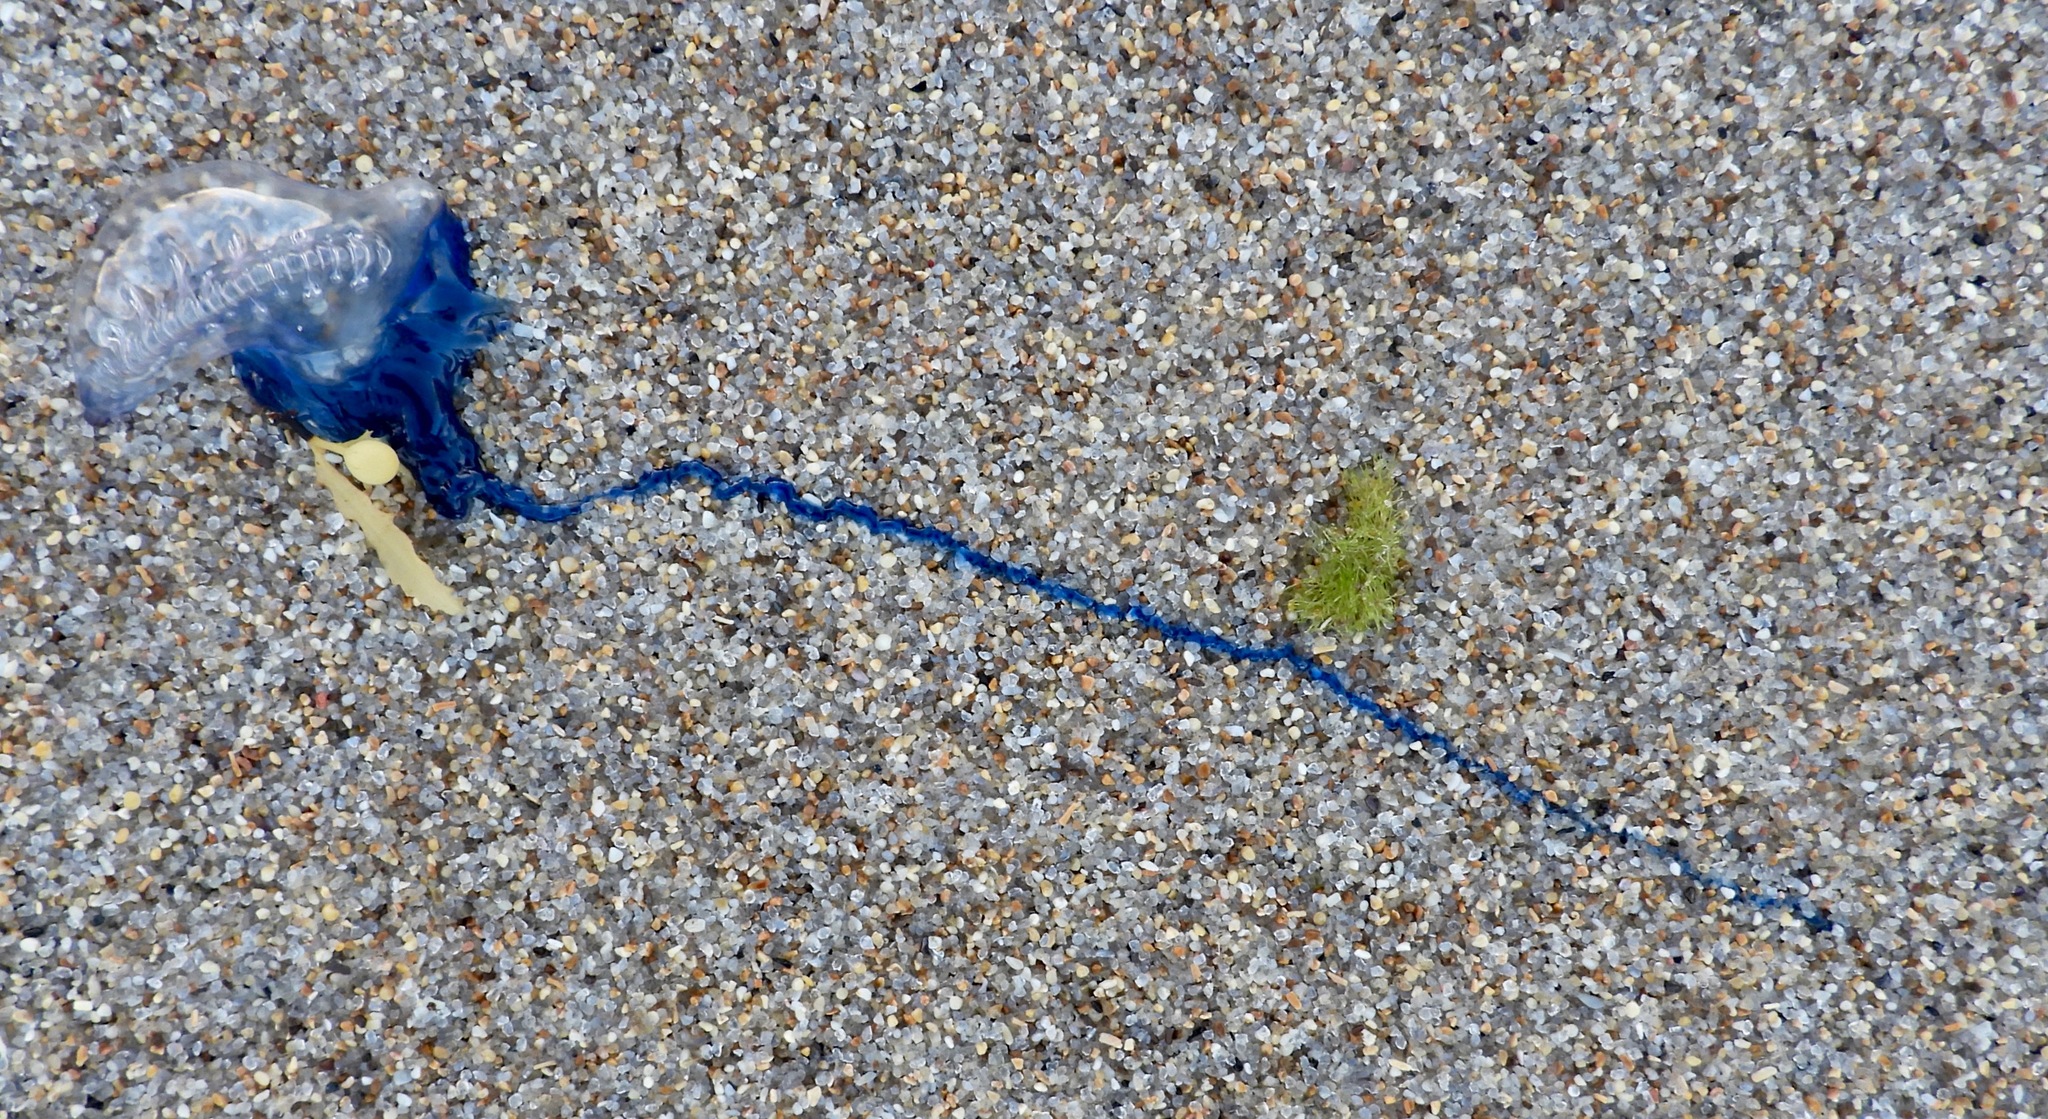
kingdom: Animalia
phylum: Cnidaria
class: Hydrozoa
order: Siphonophorae
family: Physaliidae
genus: Physalia
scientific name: Physalia physalis
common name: Portuguese man-of-war
